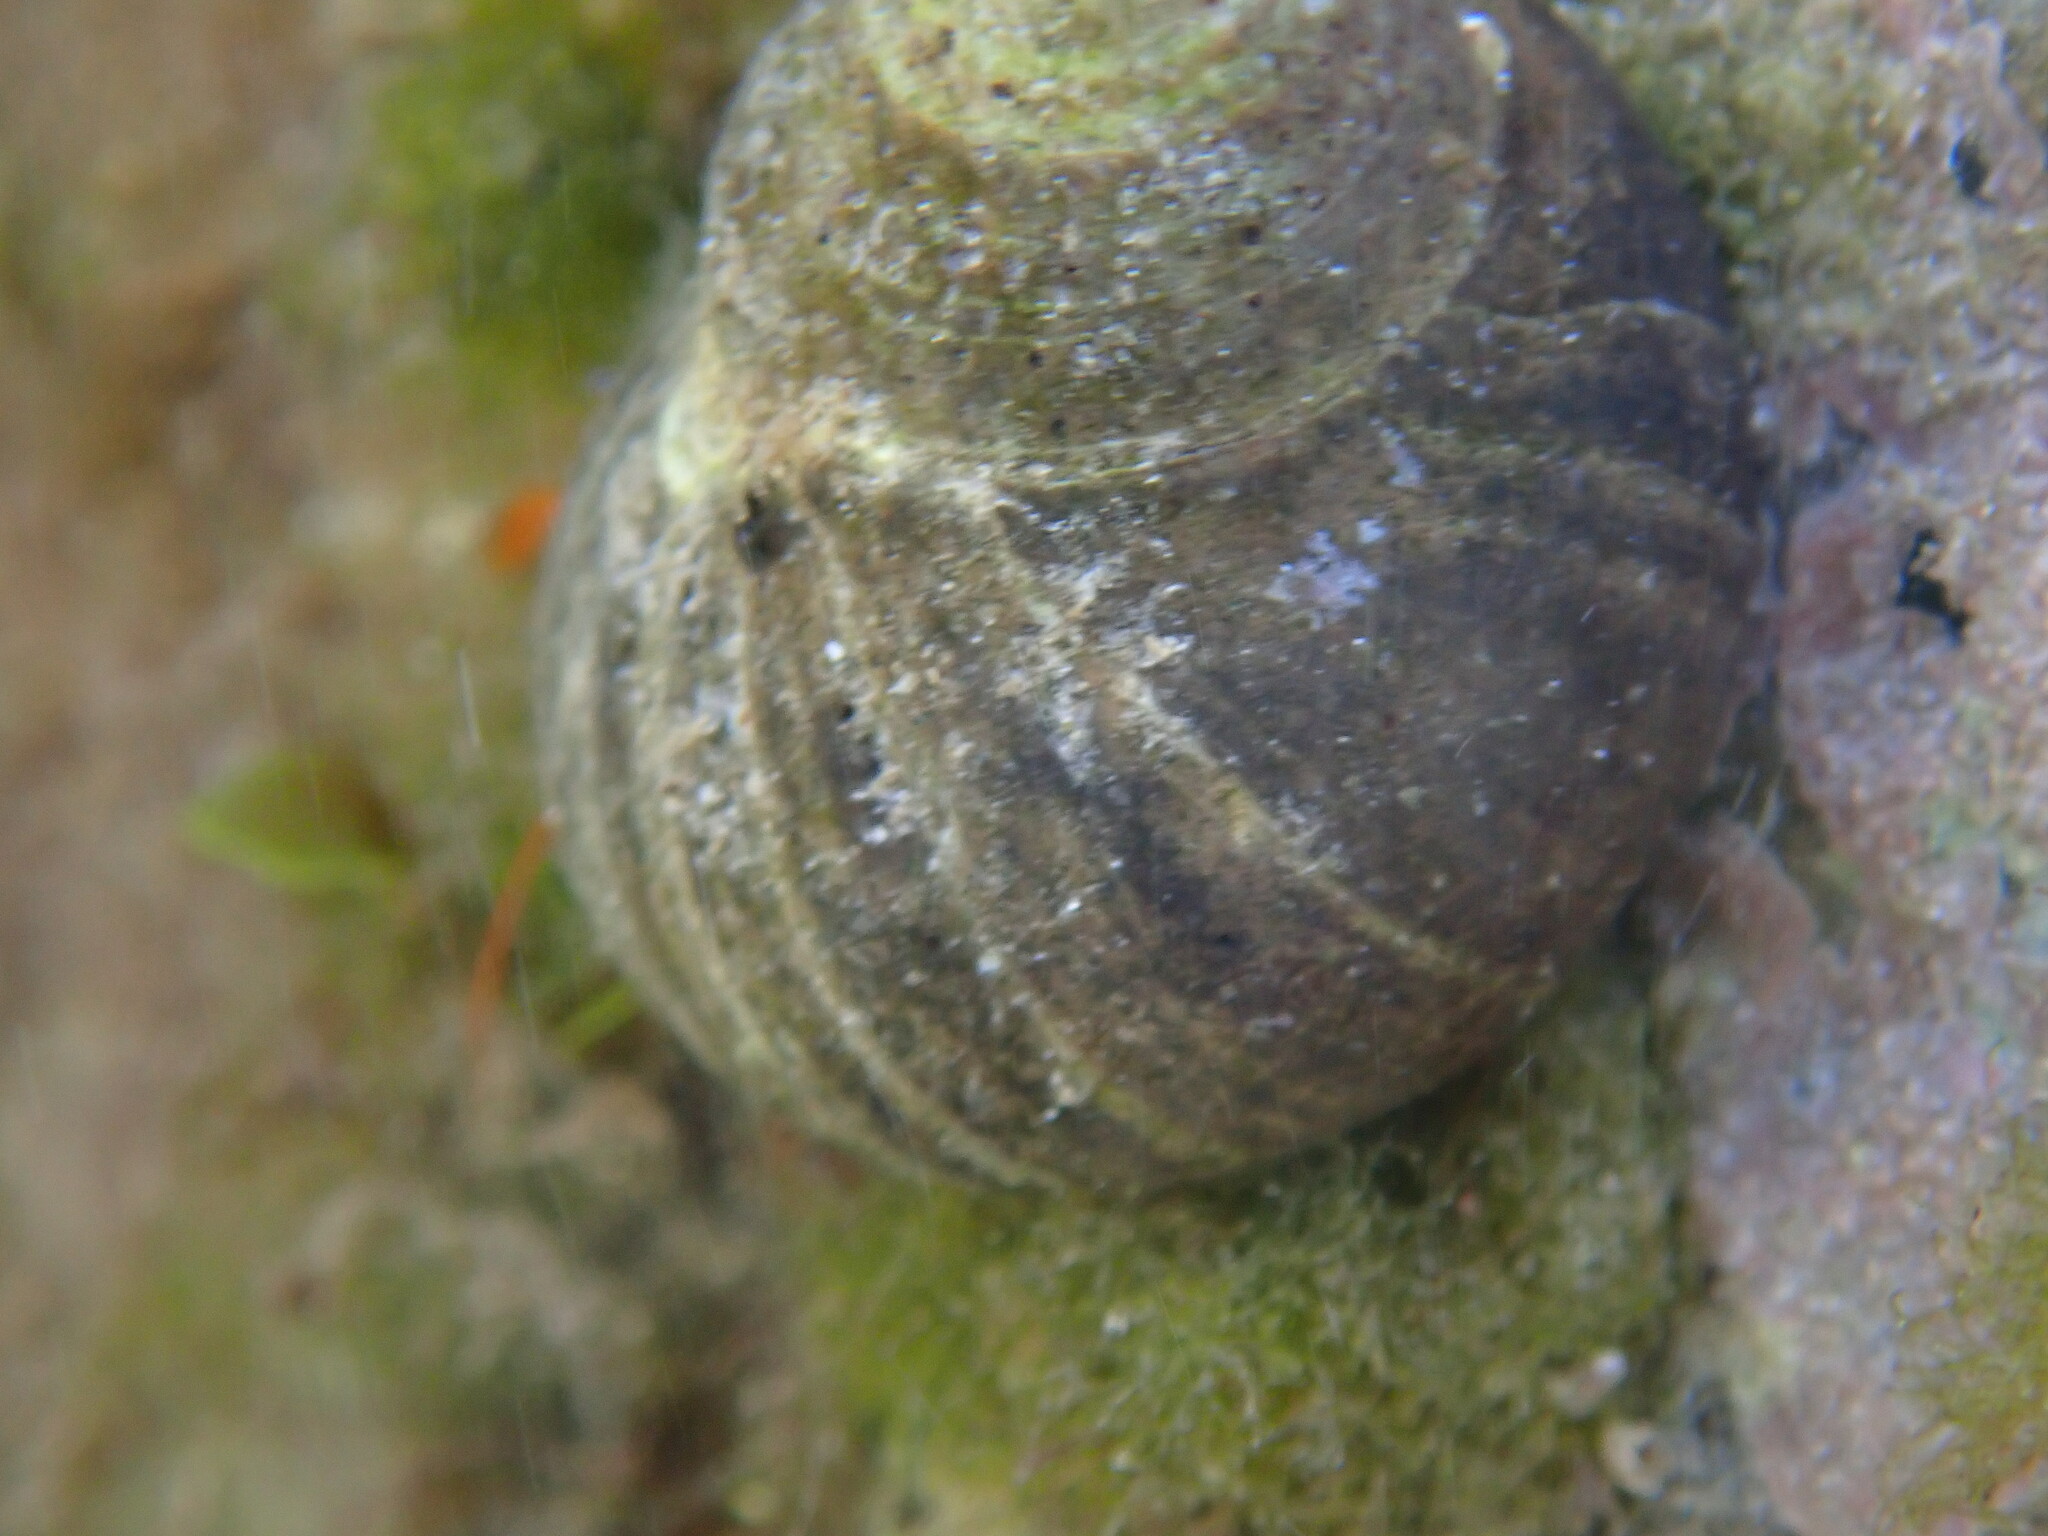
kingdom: Animalia
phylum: Mollusca
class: Gastropoda
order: Littorinimorpha
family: Littorinidae
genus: Littorina
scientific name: Littorina littorea
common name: Common periwinkle
